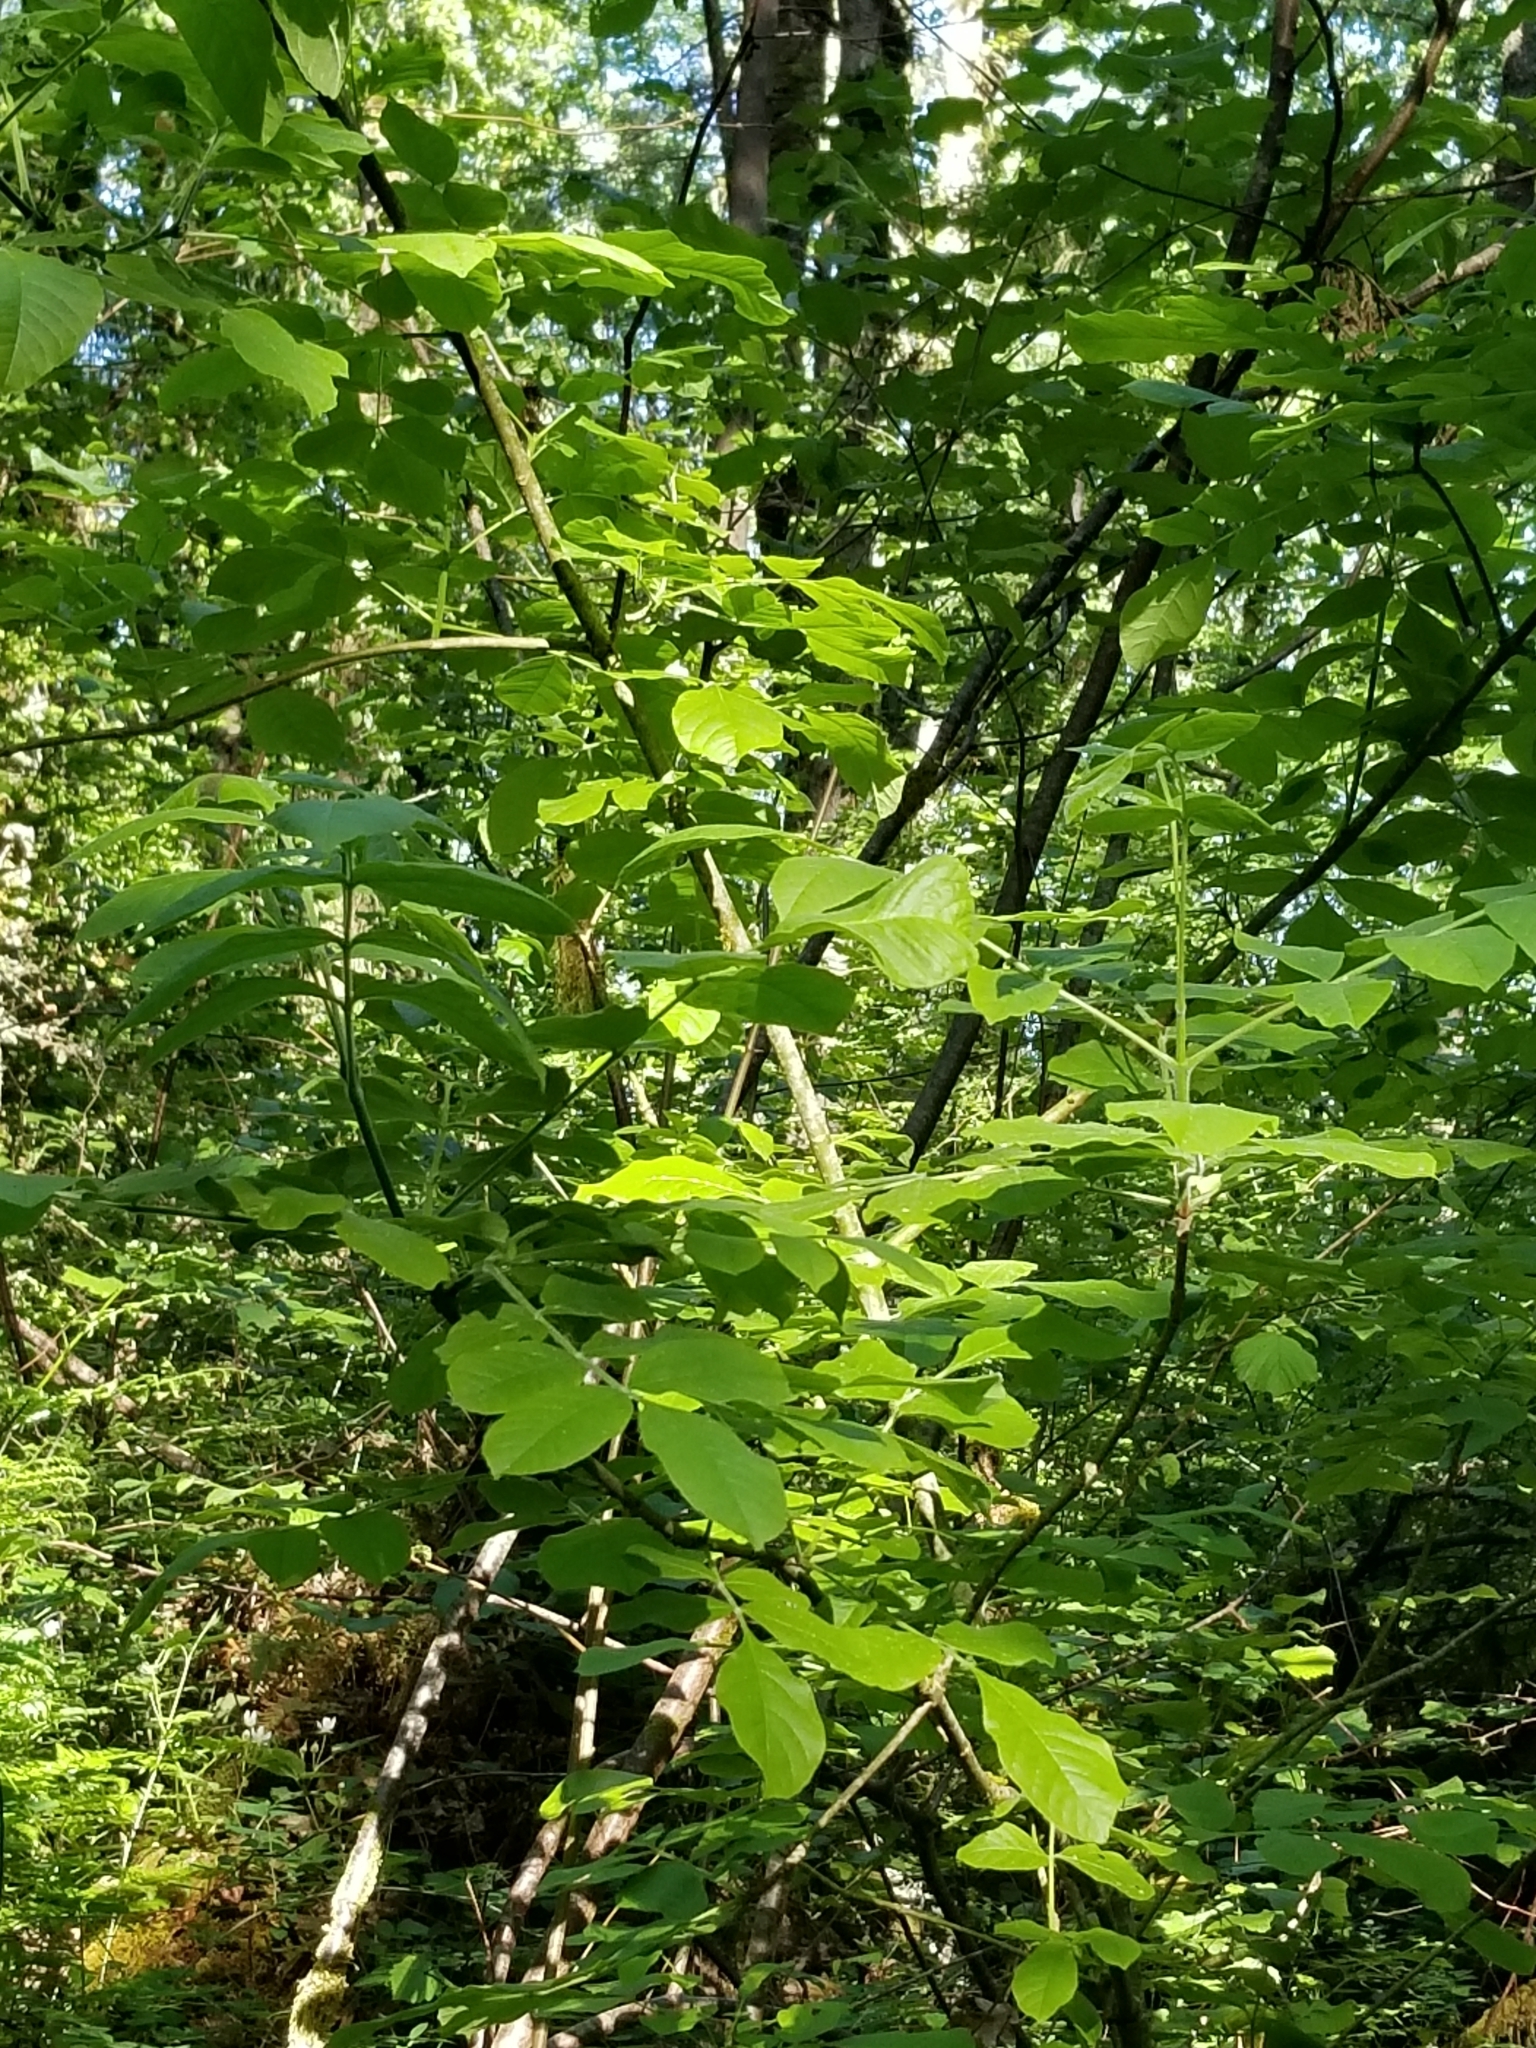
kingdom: Plantae
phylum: Tracheophyta
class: Magnoliopsida
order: Lamiales
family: Oleaceae
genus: Fraxinus
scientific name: Fraxinus latifolia
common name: Oregon ash
